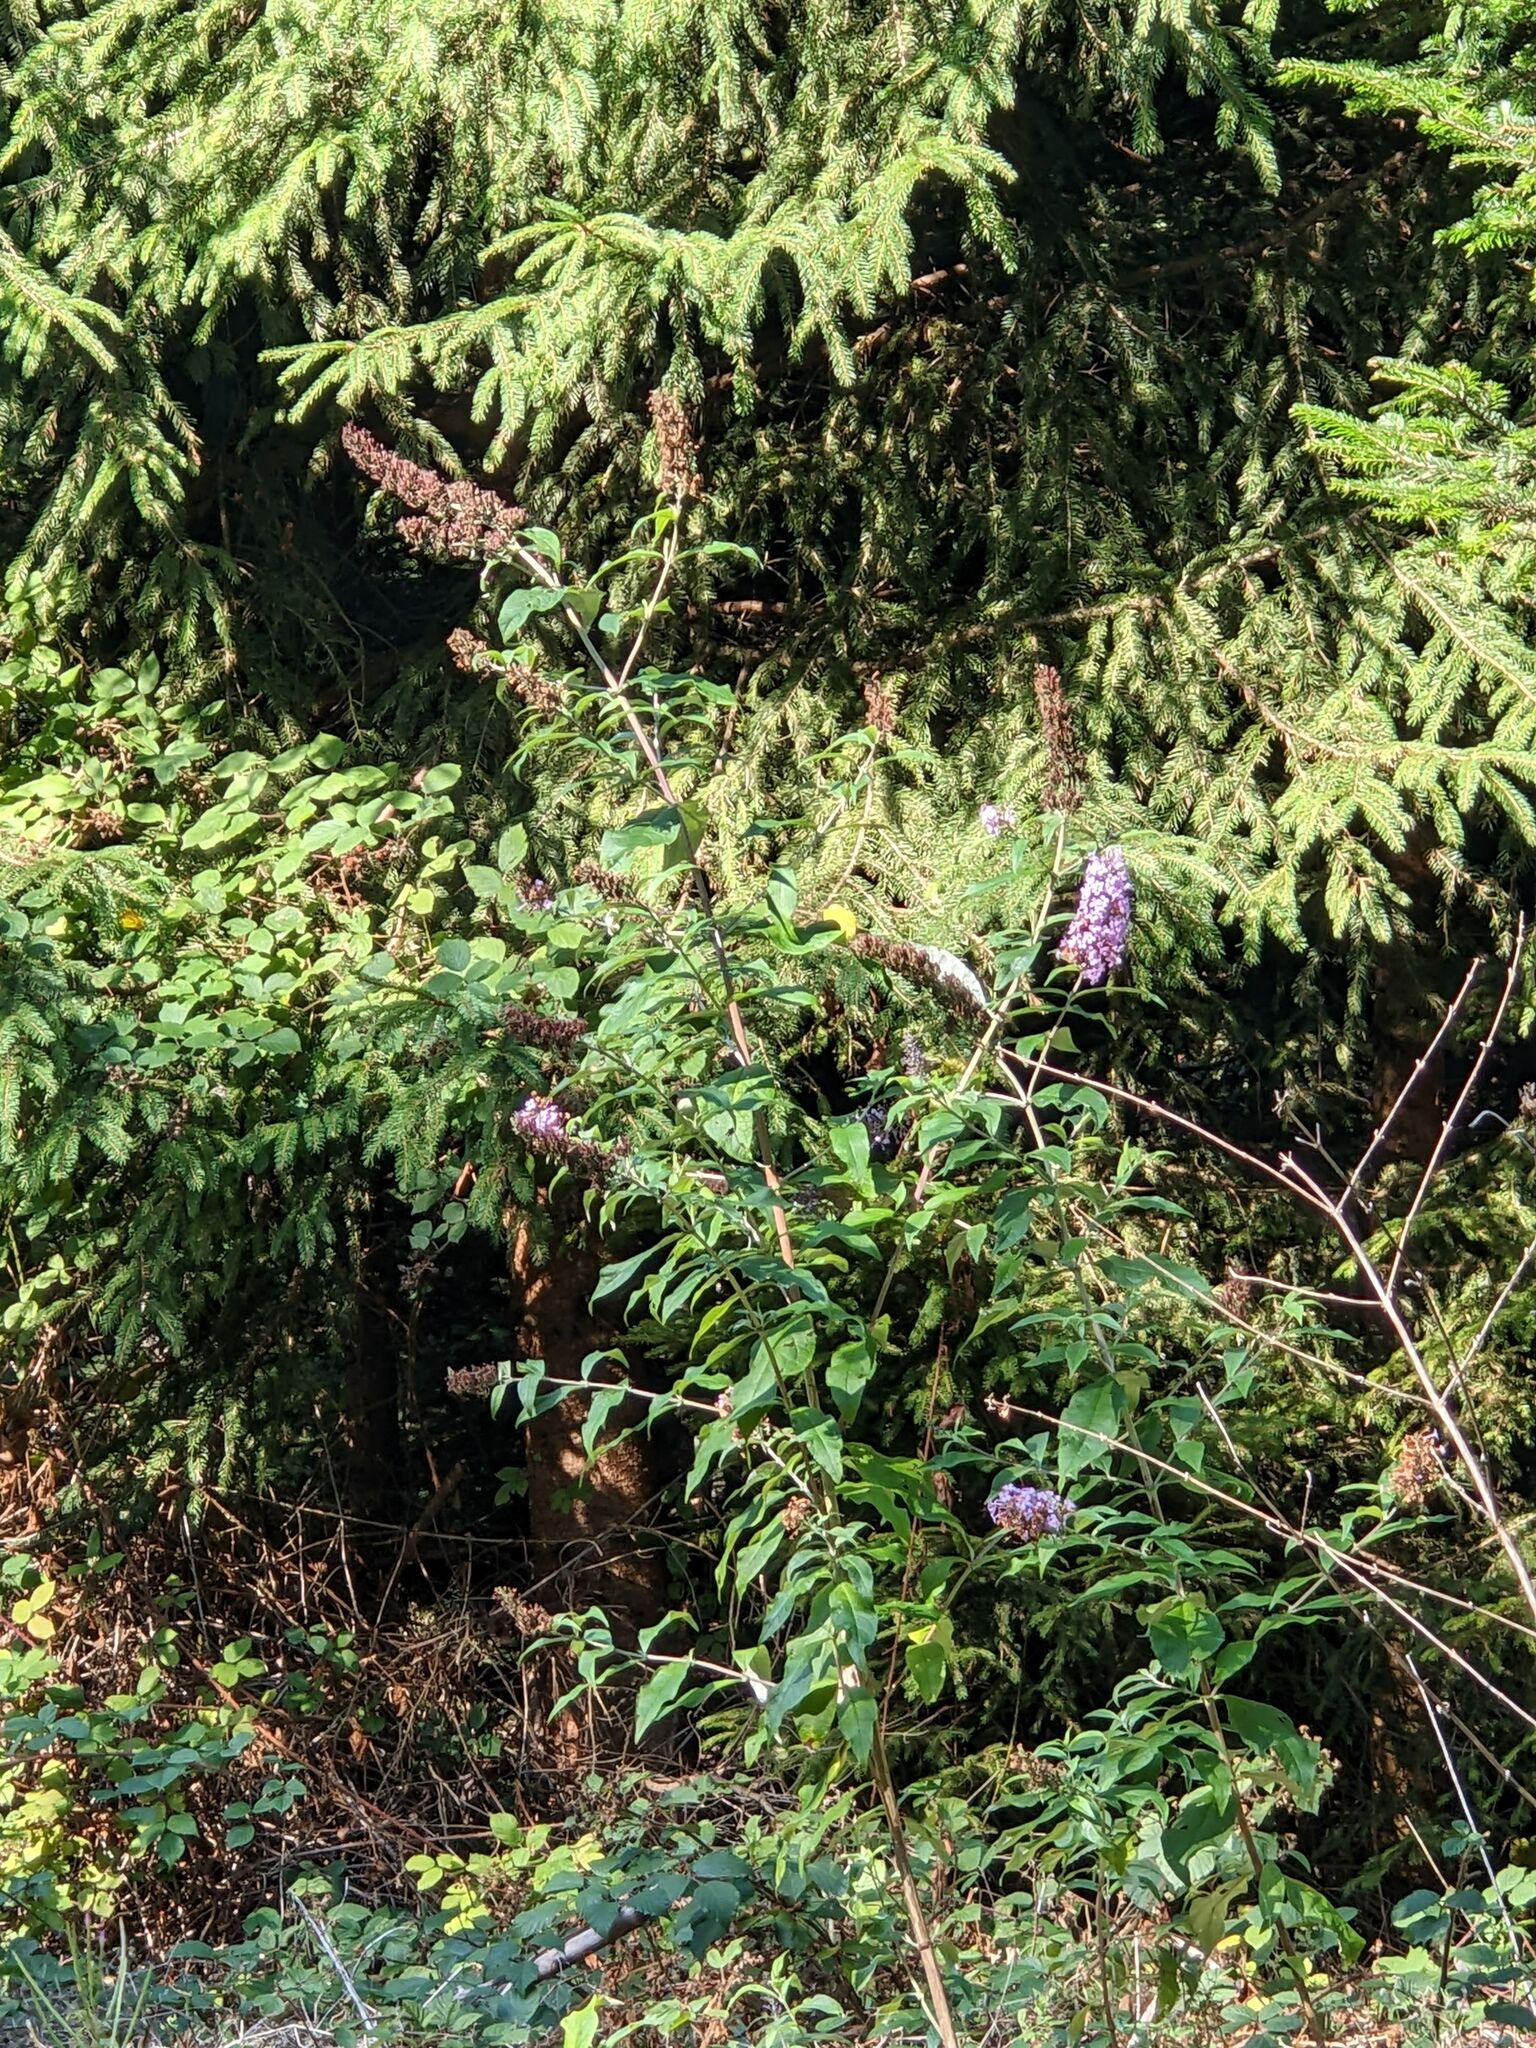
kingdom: Plantae
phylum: Tracheophyta
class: Magnoliopsida
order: Lamiales
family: Scrophulariaceae
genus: Buddleja
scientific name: Buddleja davidii
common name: Butterfly-bush
